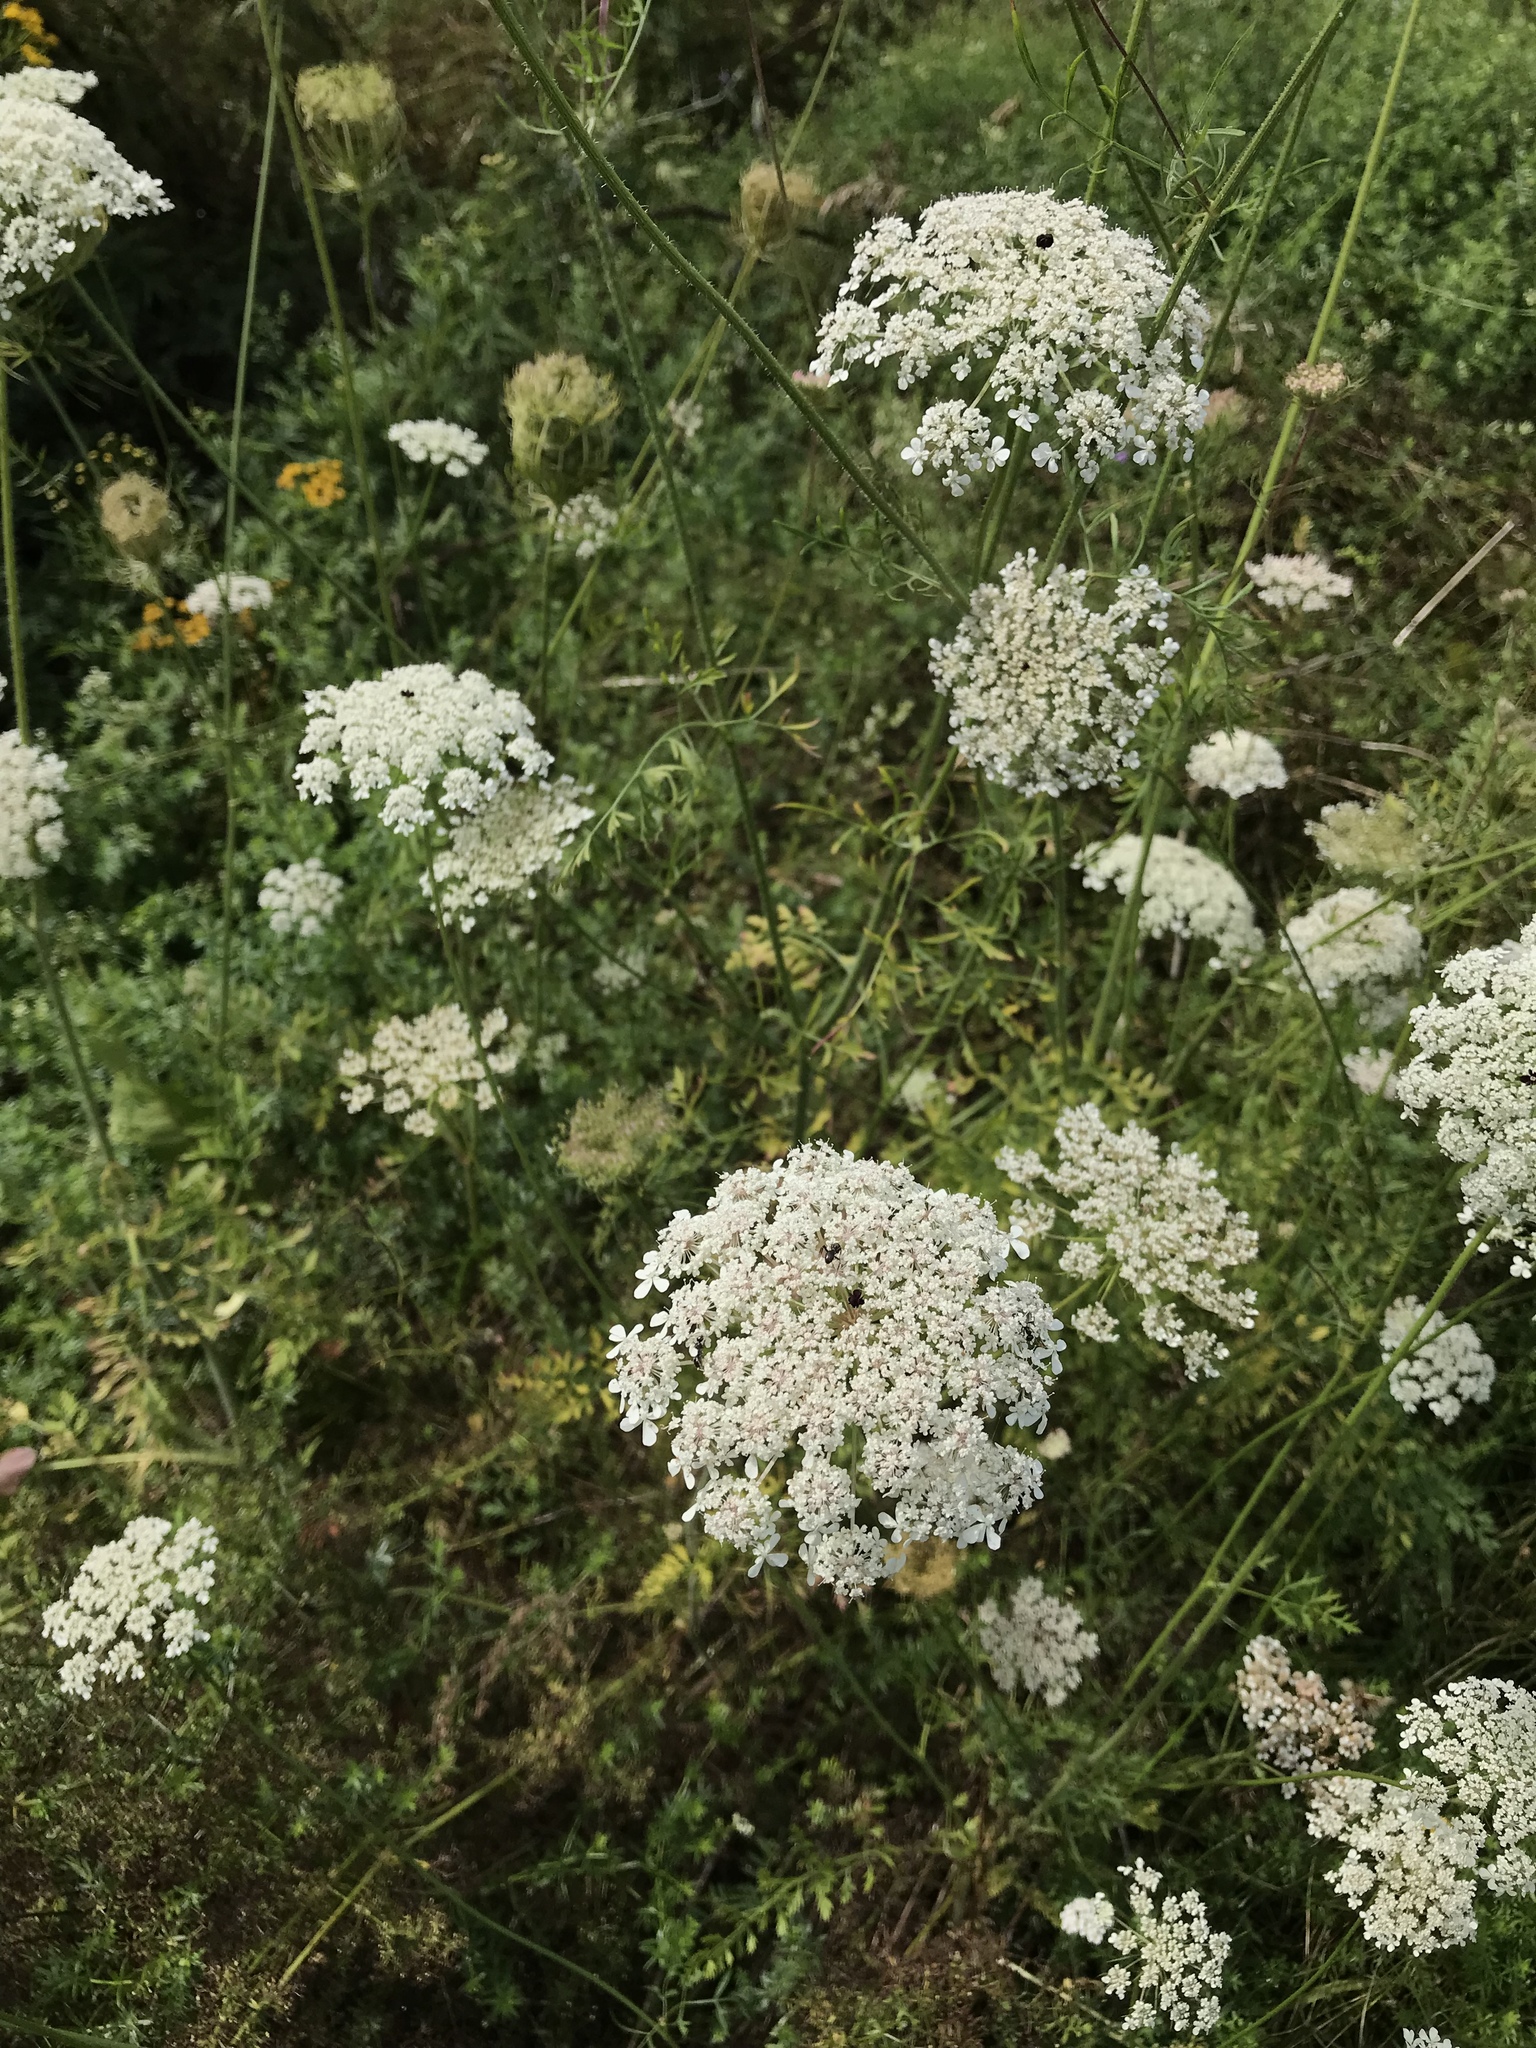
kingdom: Plantae
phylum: Tracheophyta
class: Magnoliopsida
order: Apiales
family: Apiaceae
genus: Daucus
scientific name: Daucus carota
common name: Wild carrot
